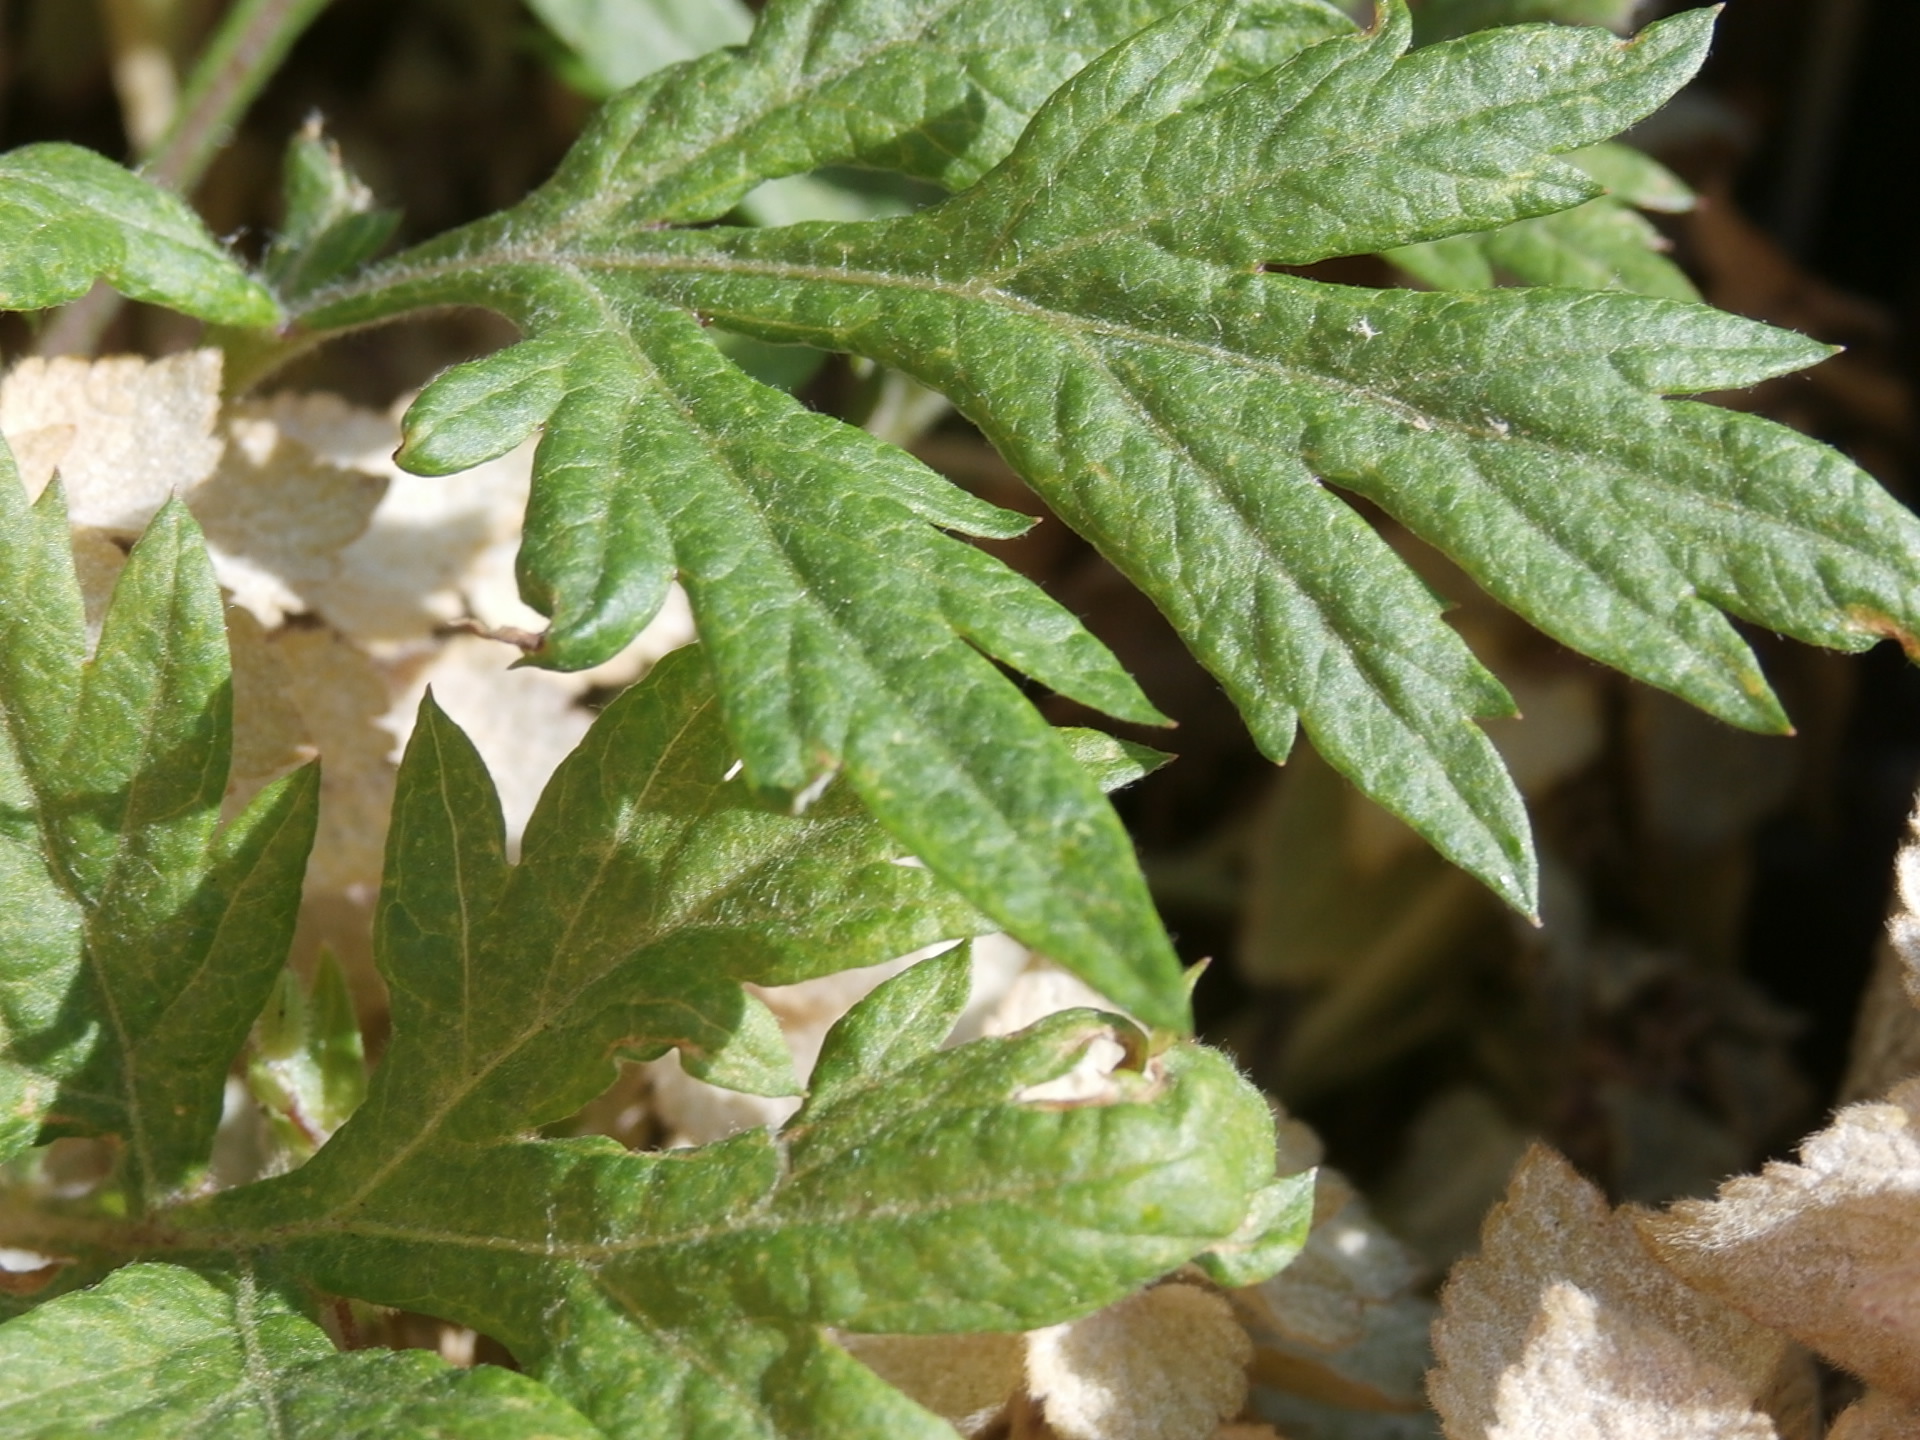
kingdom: Plantae
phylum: Tracheophyta
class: Magnoliopsida
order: Asterales
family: Asteraceae
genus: Artemisia
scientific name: Artemisia vulgaris
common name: Mugwort
